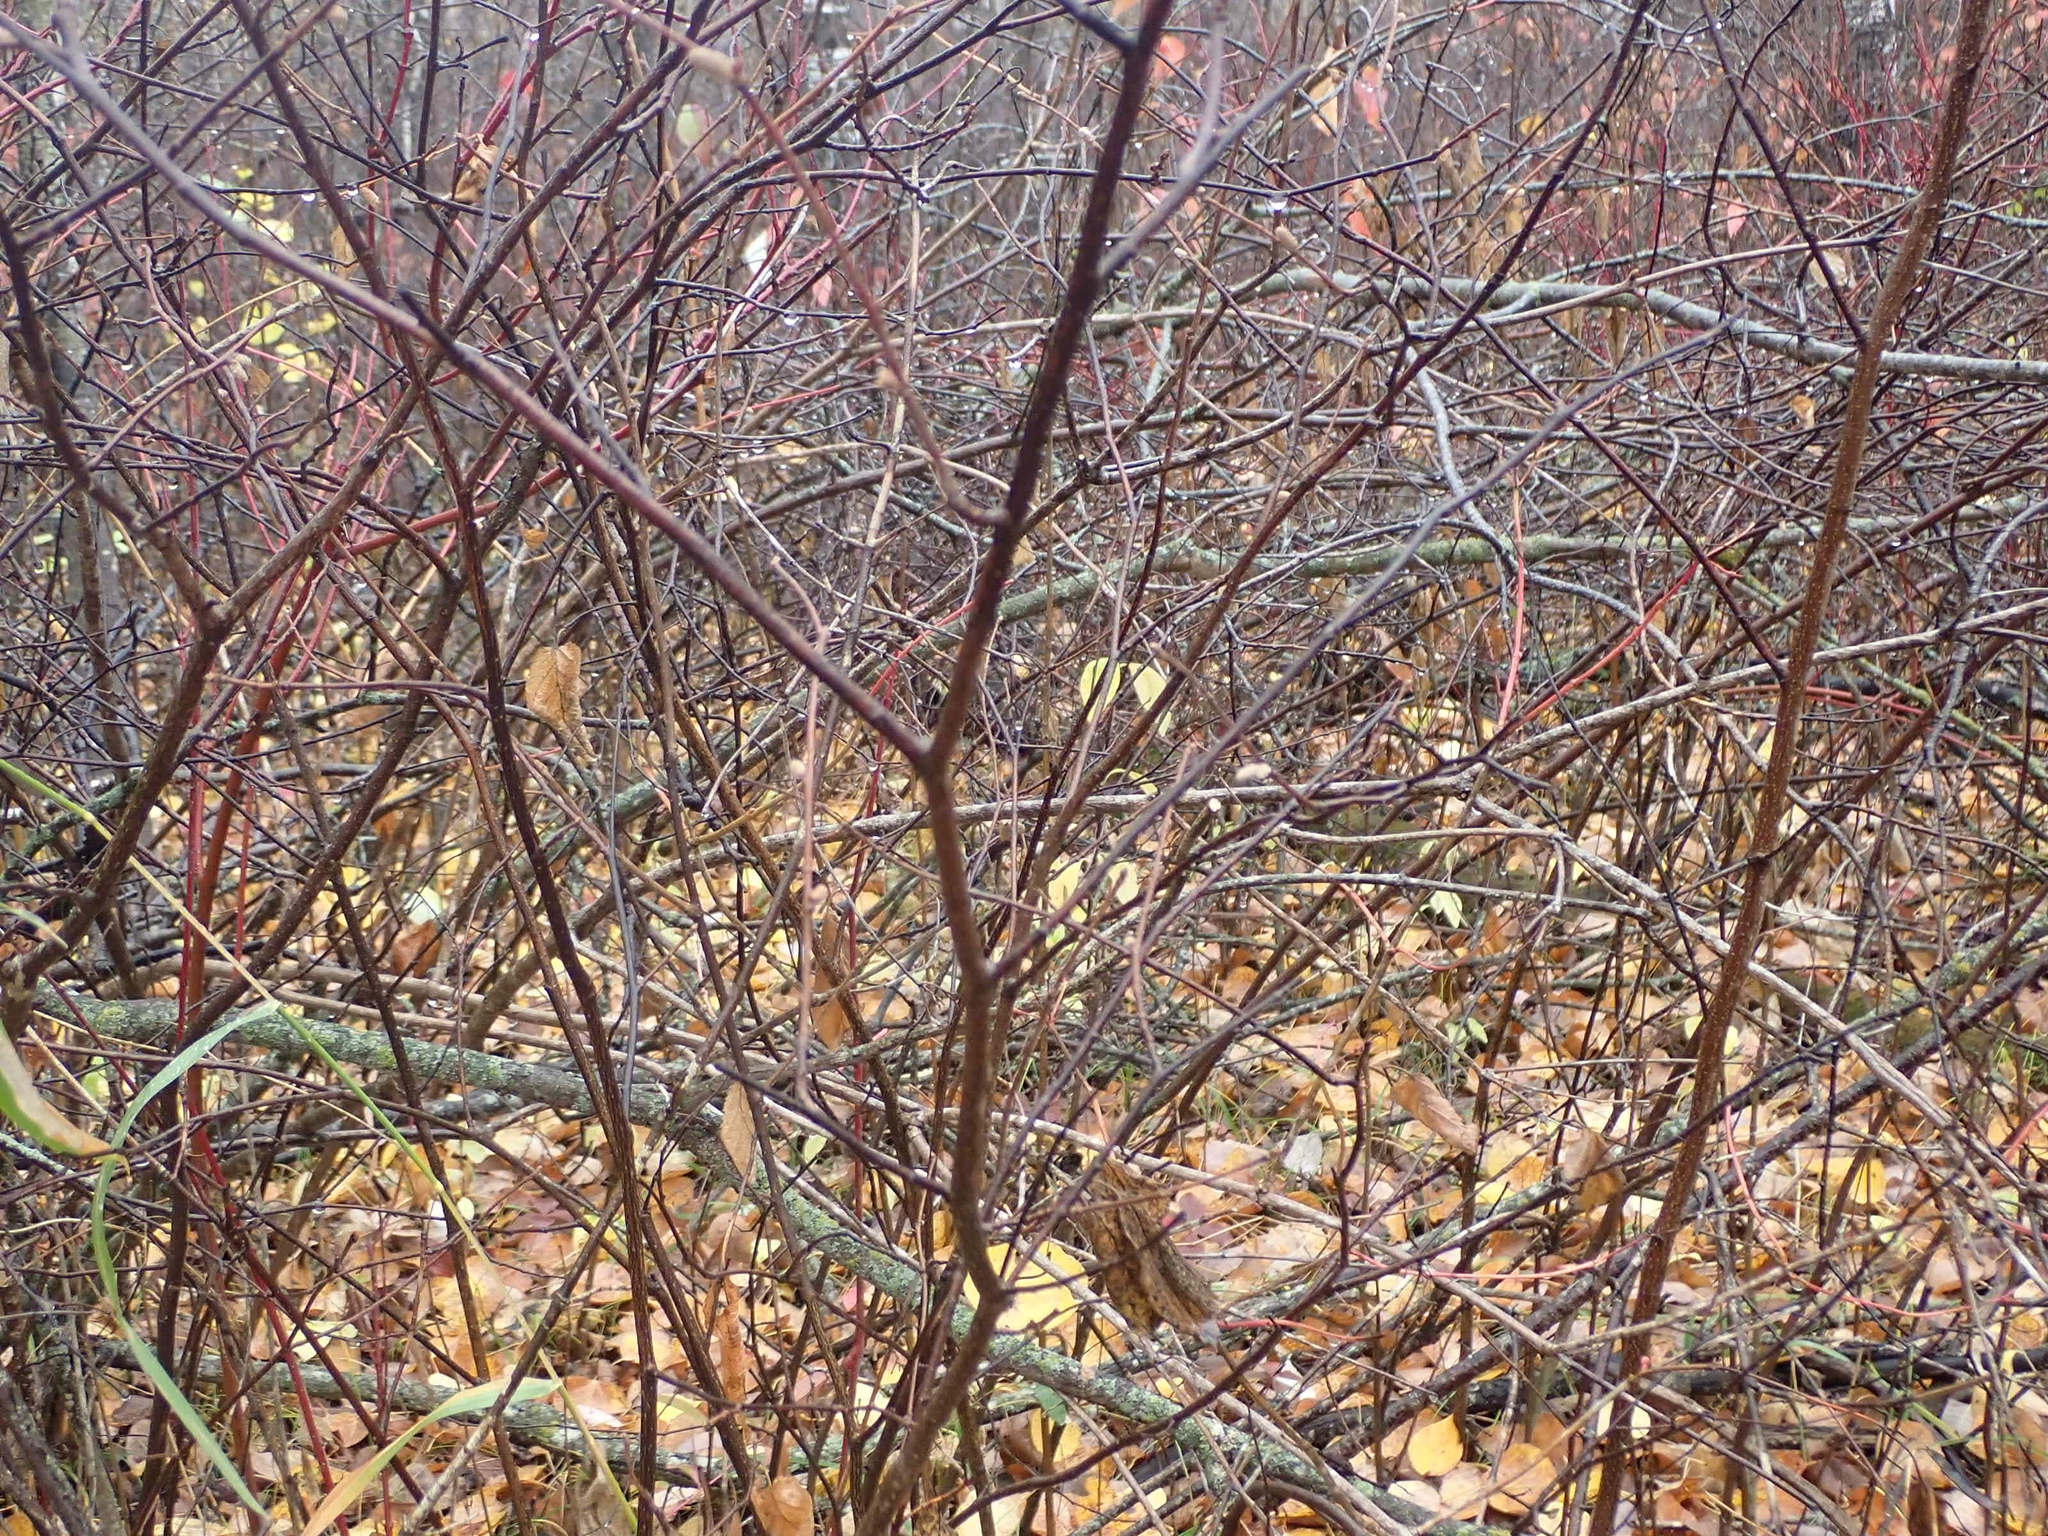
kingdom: Plantae
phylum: Tracheophyta
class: Magnoliopsida
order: Fagales
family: Betulaceae
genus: Corylus
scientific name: Corylus cornuta
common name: Beaked hazel
